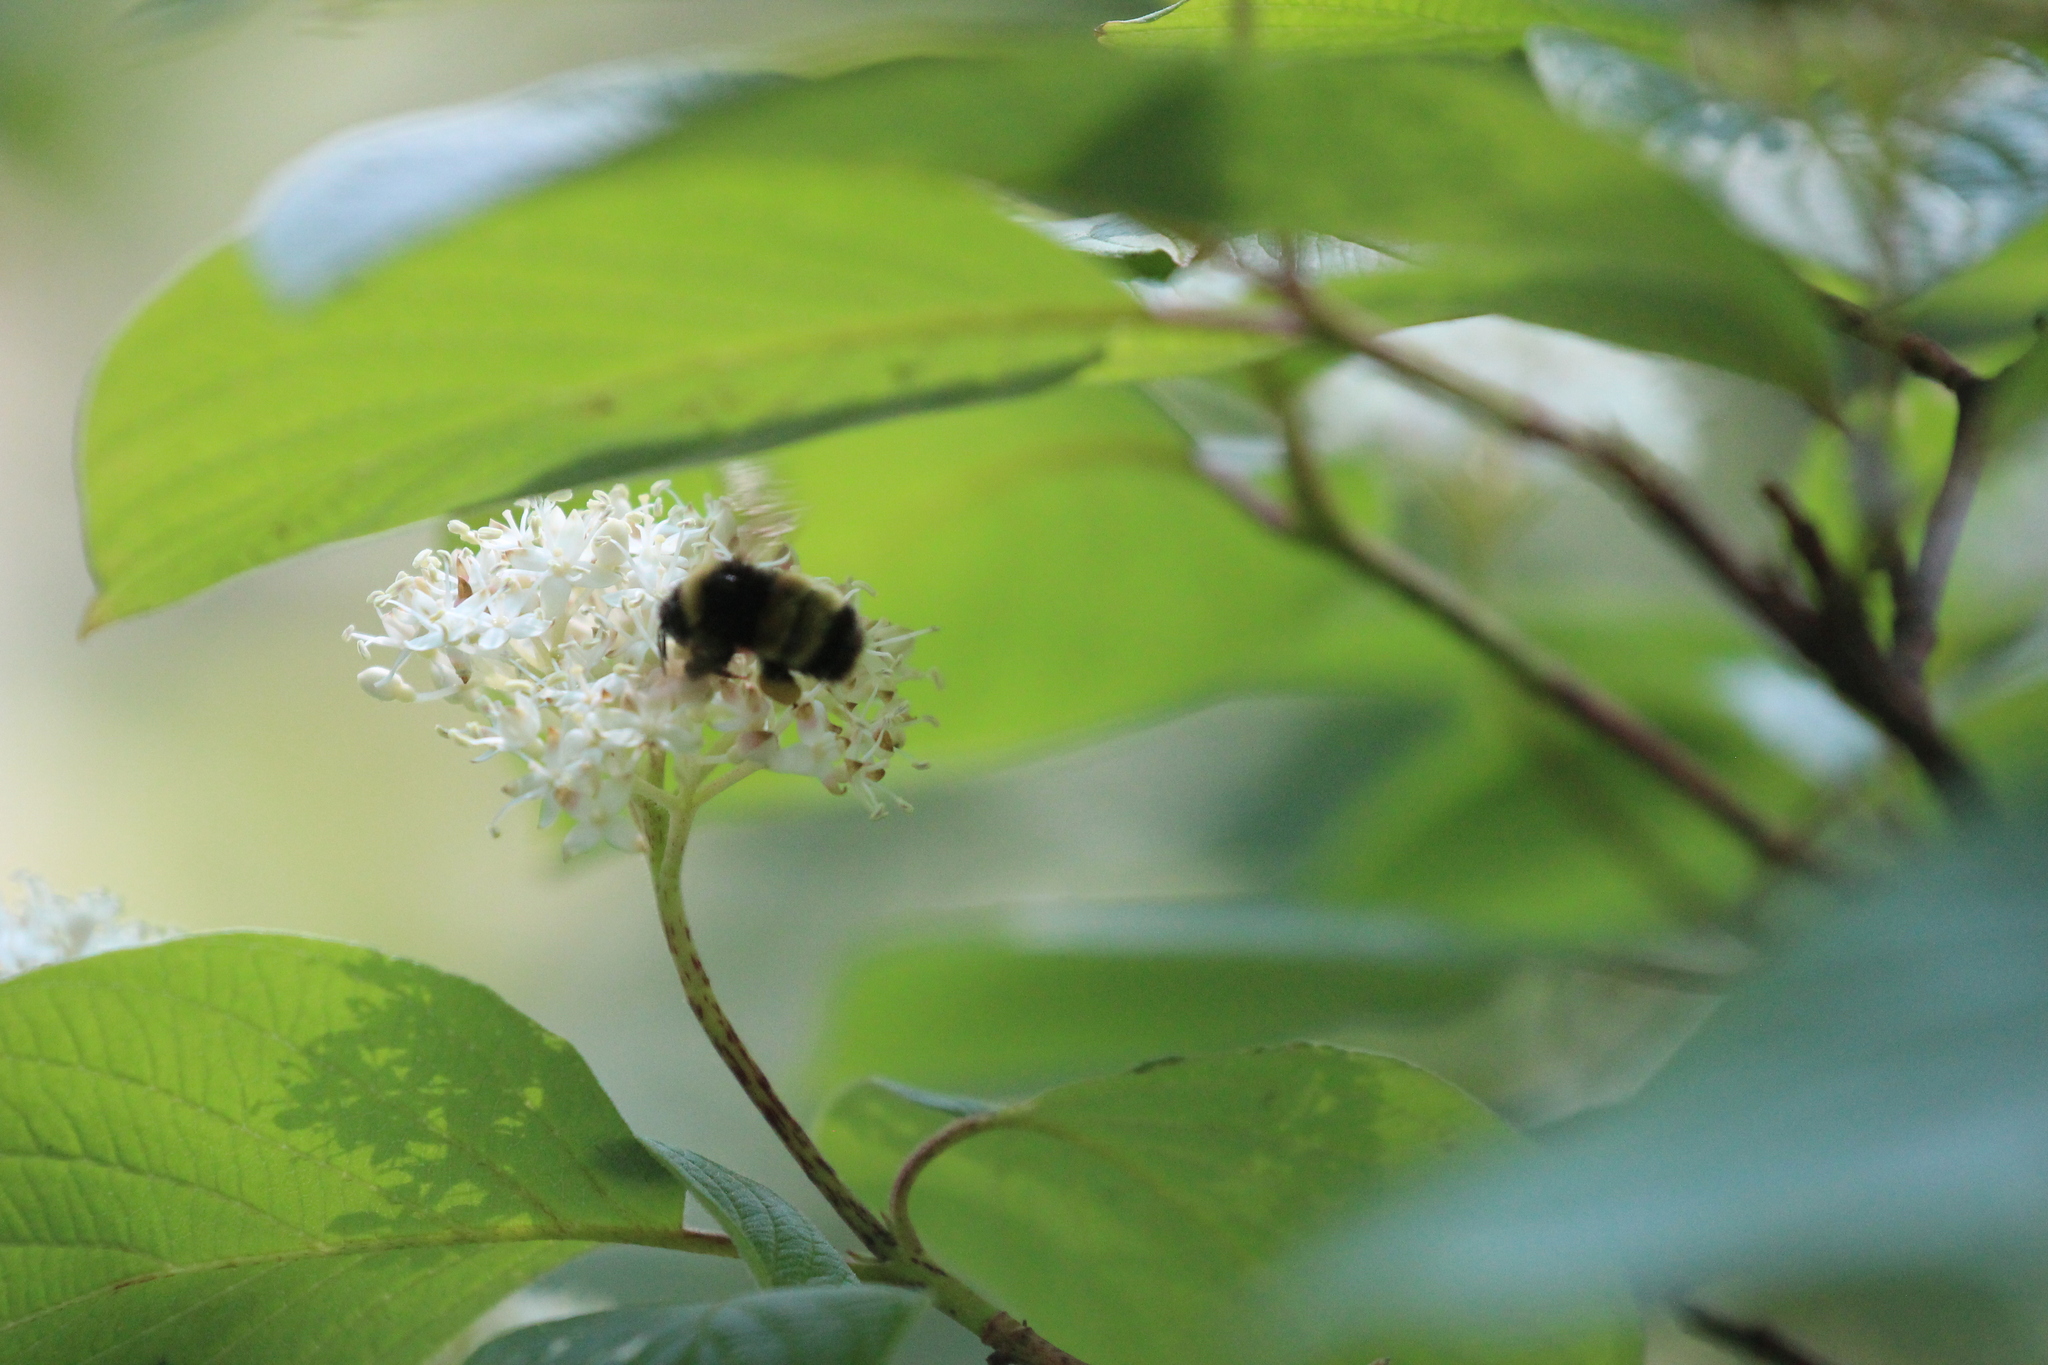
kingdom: Animalia
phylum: Arthropoda
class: Insecta
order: Hymenoptera
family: Apidae
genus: Bombus
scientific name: Bombus terricola
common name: Yellow-banded bumble bee
